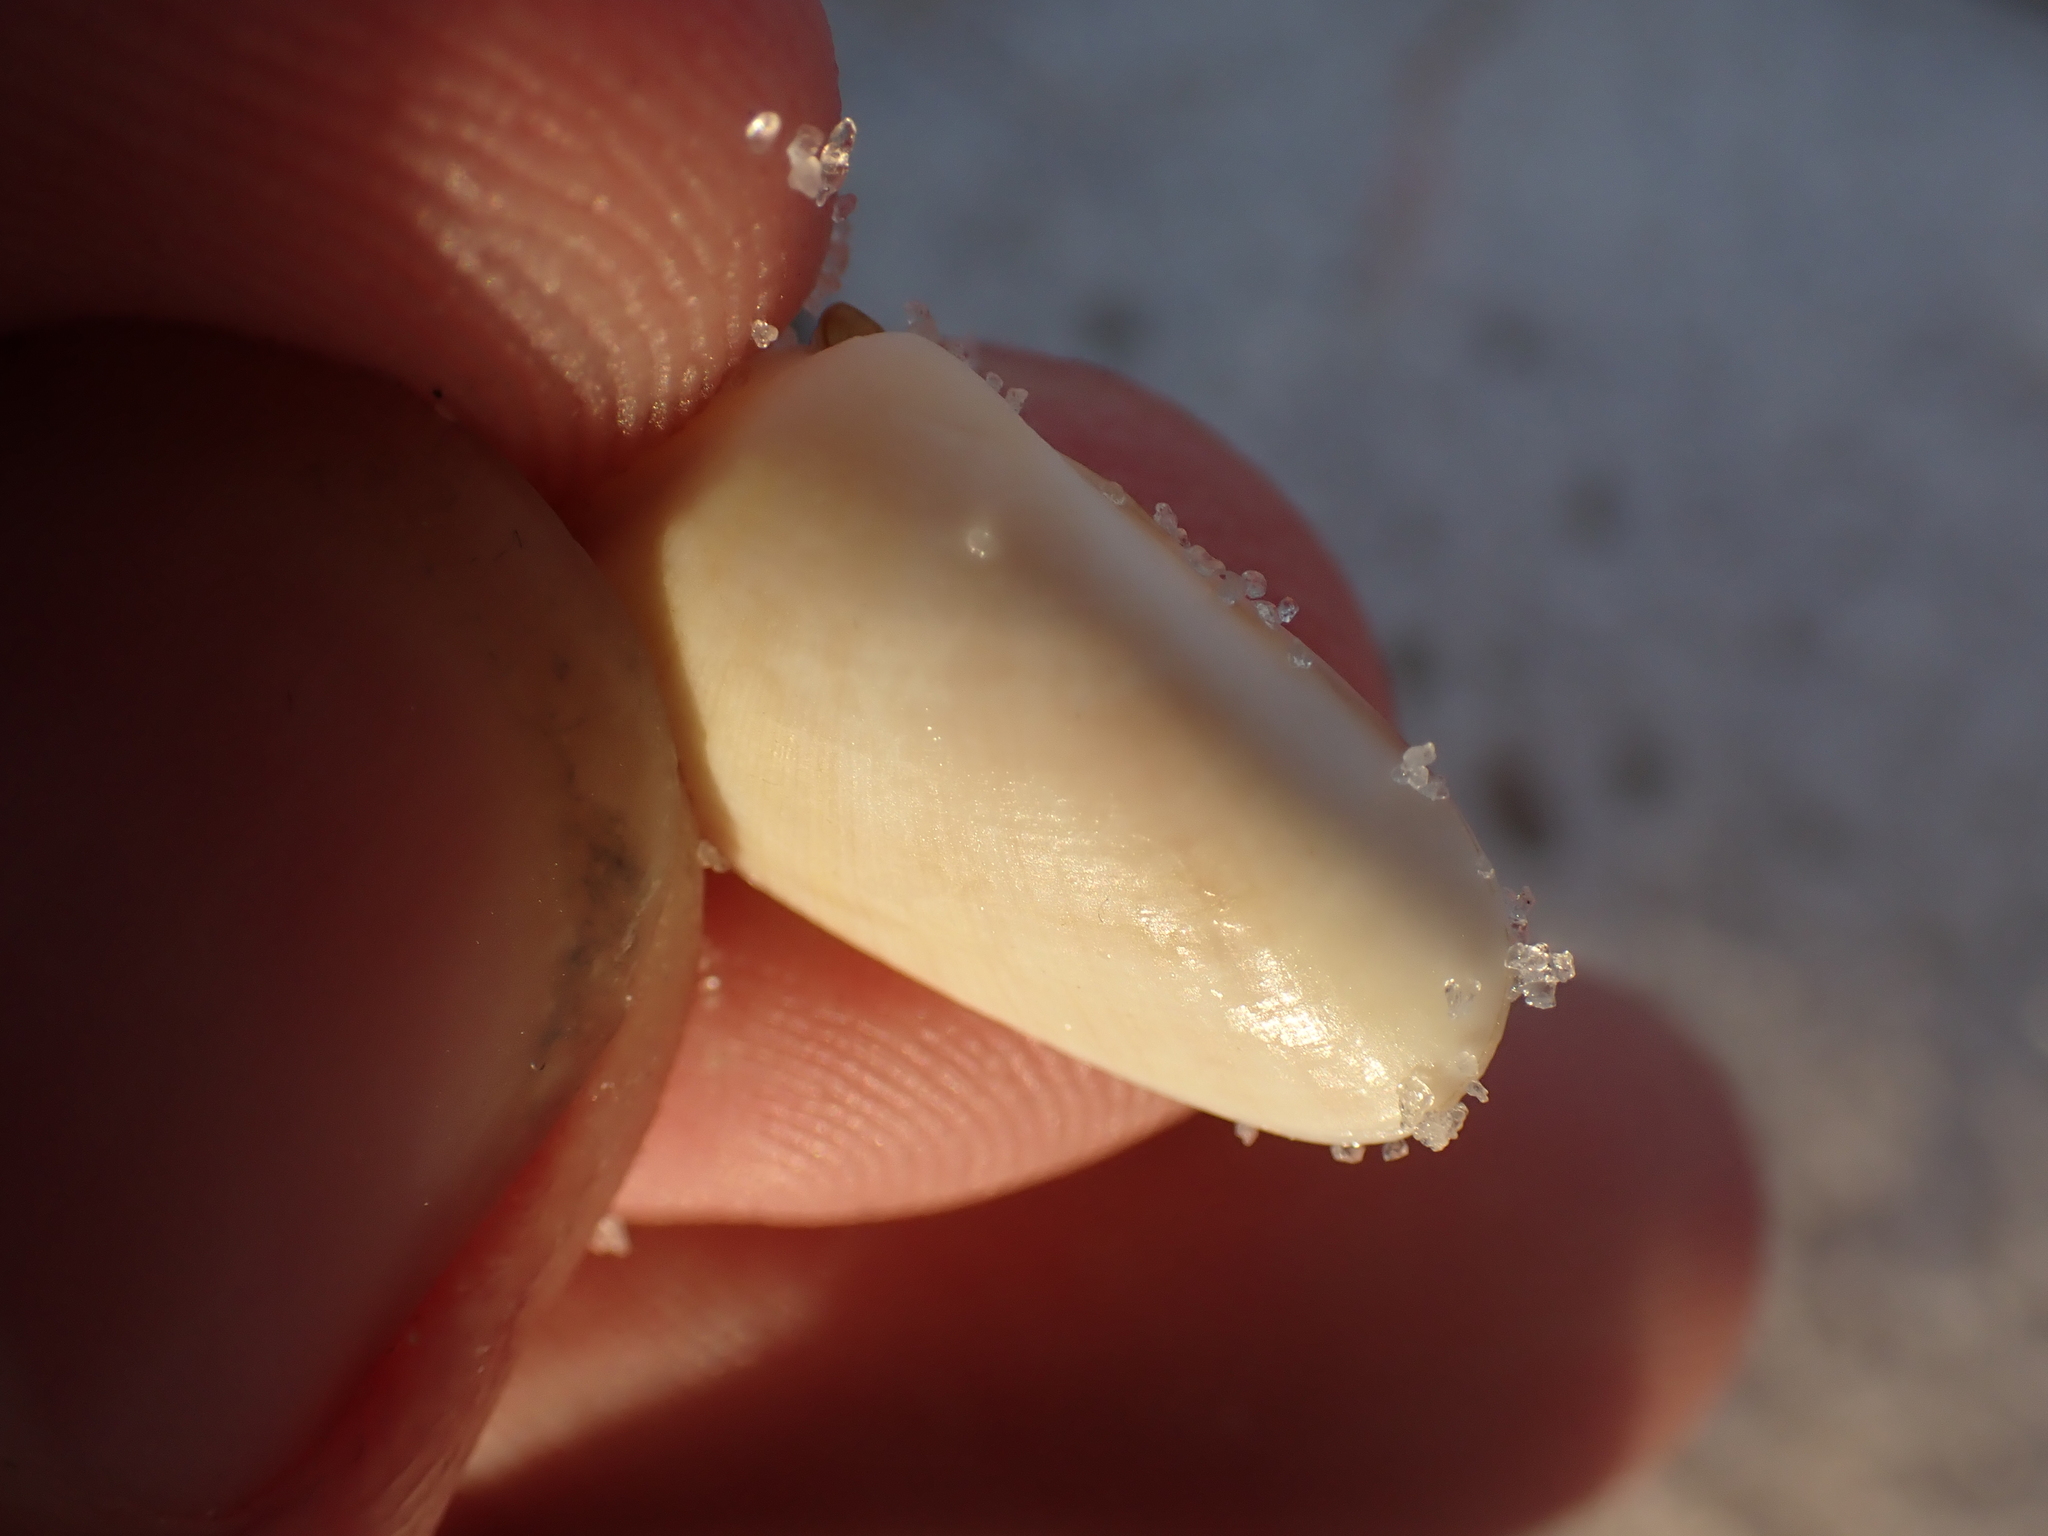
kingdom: Animalia
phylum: Mollusca
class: Bivalvia
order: Cardiida
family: Donacidae
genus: Donax
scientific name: Donax variabilis
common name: Butterfly shell
